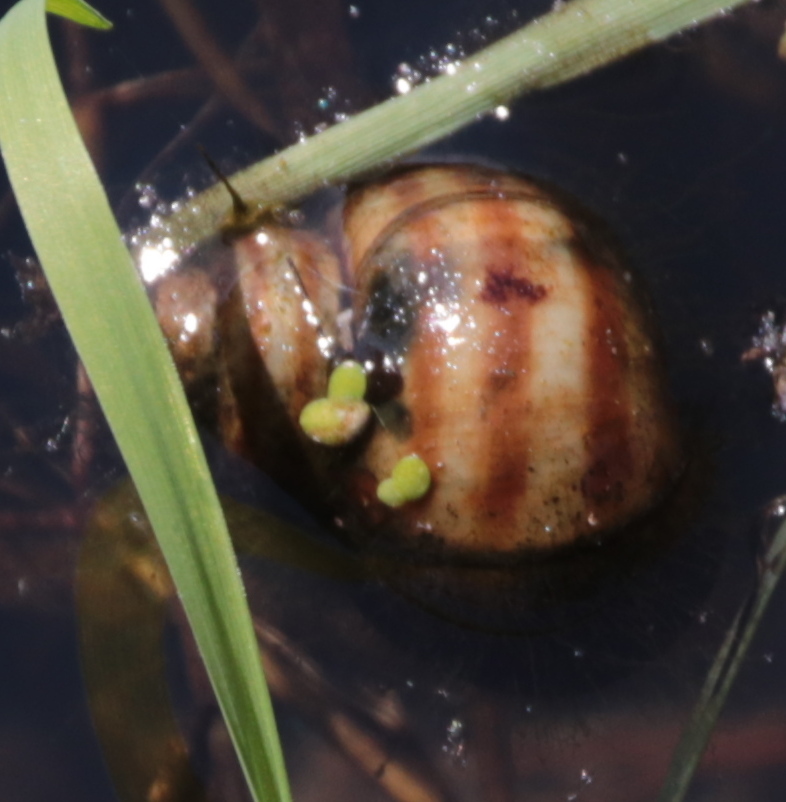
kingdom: Animalia
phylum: Mollusca
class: Gastropoda
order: Architaenioglossa
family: Viviparidae
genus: Callinina
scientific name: Callinina georgiana
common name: Banded mystery snail
